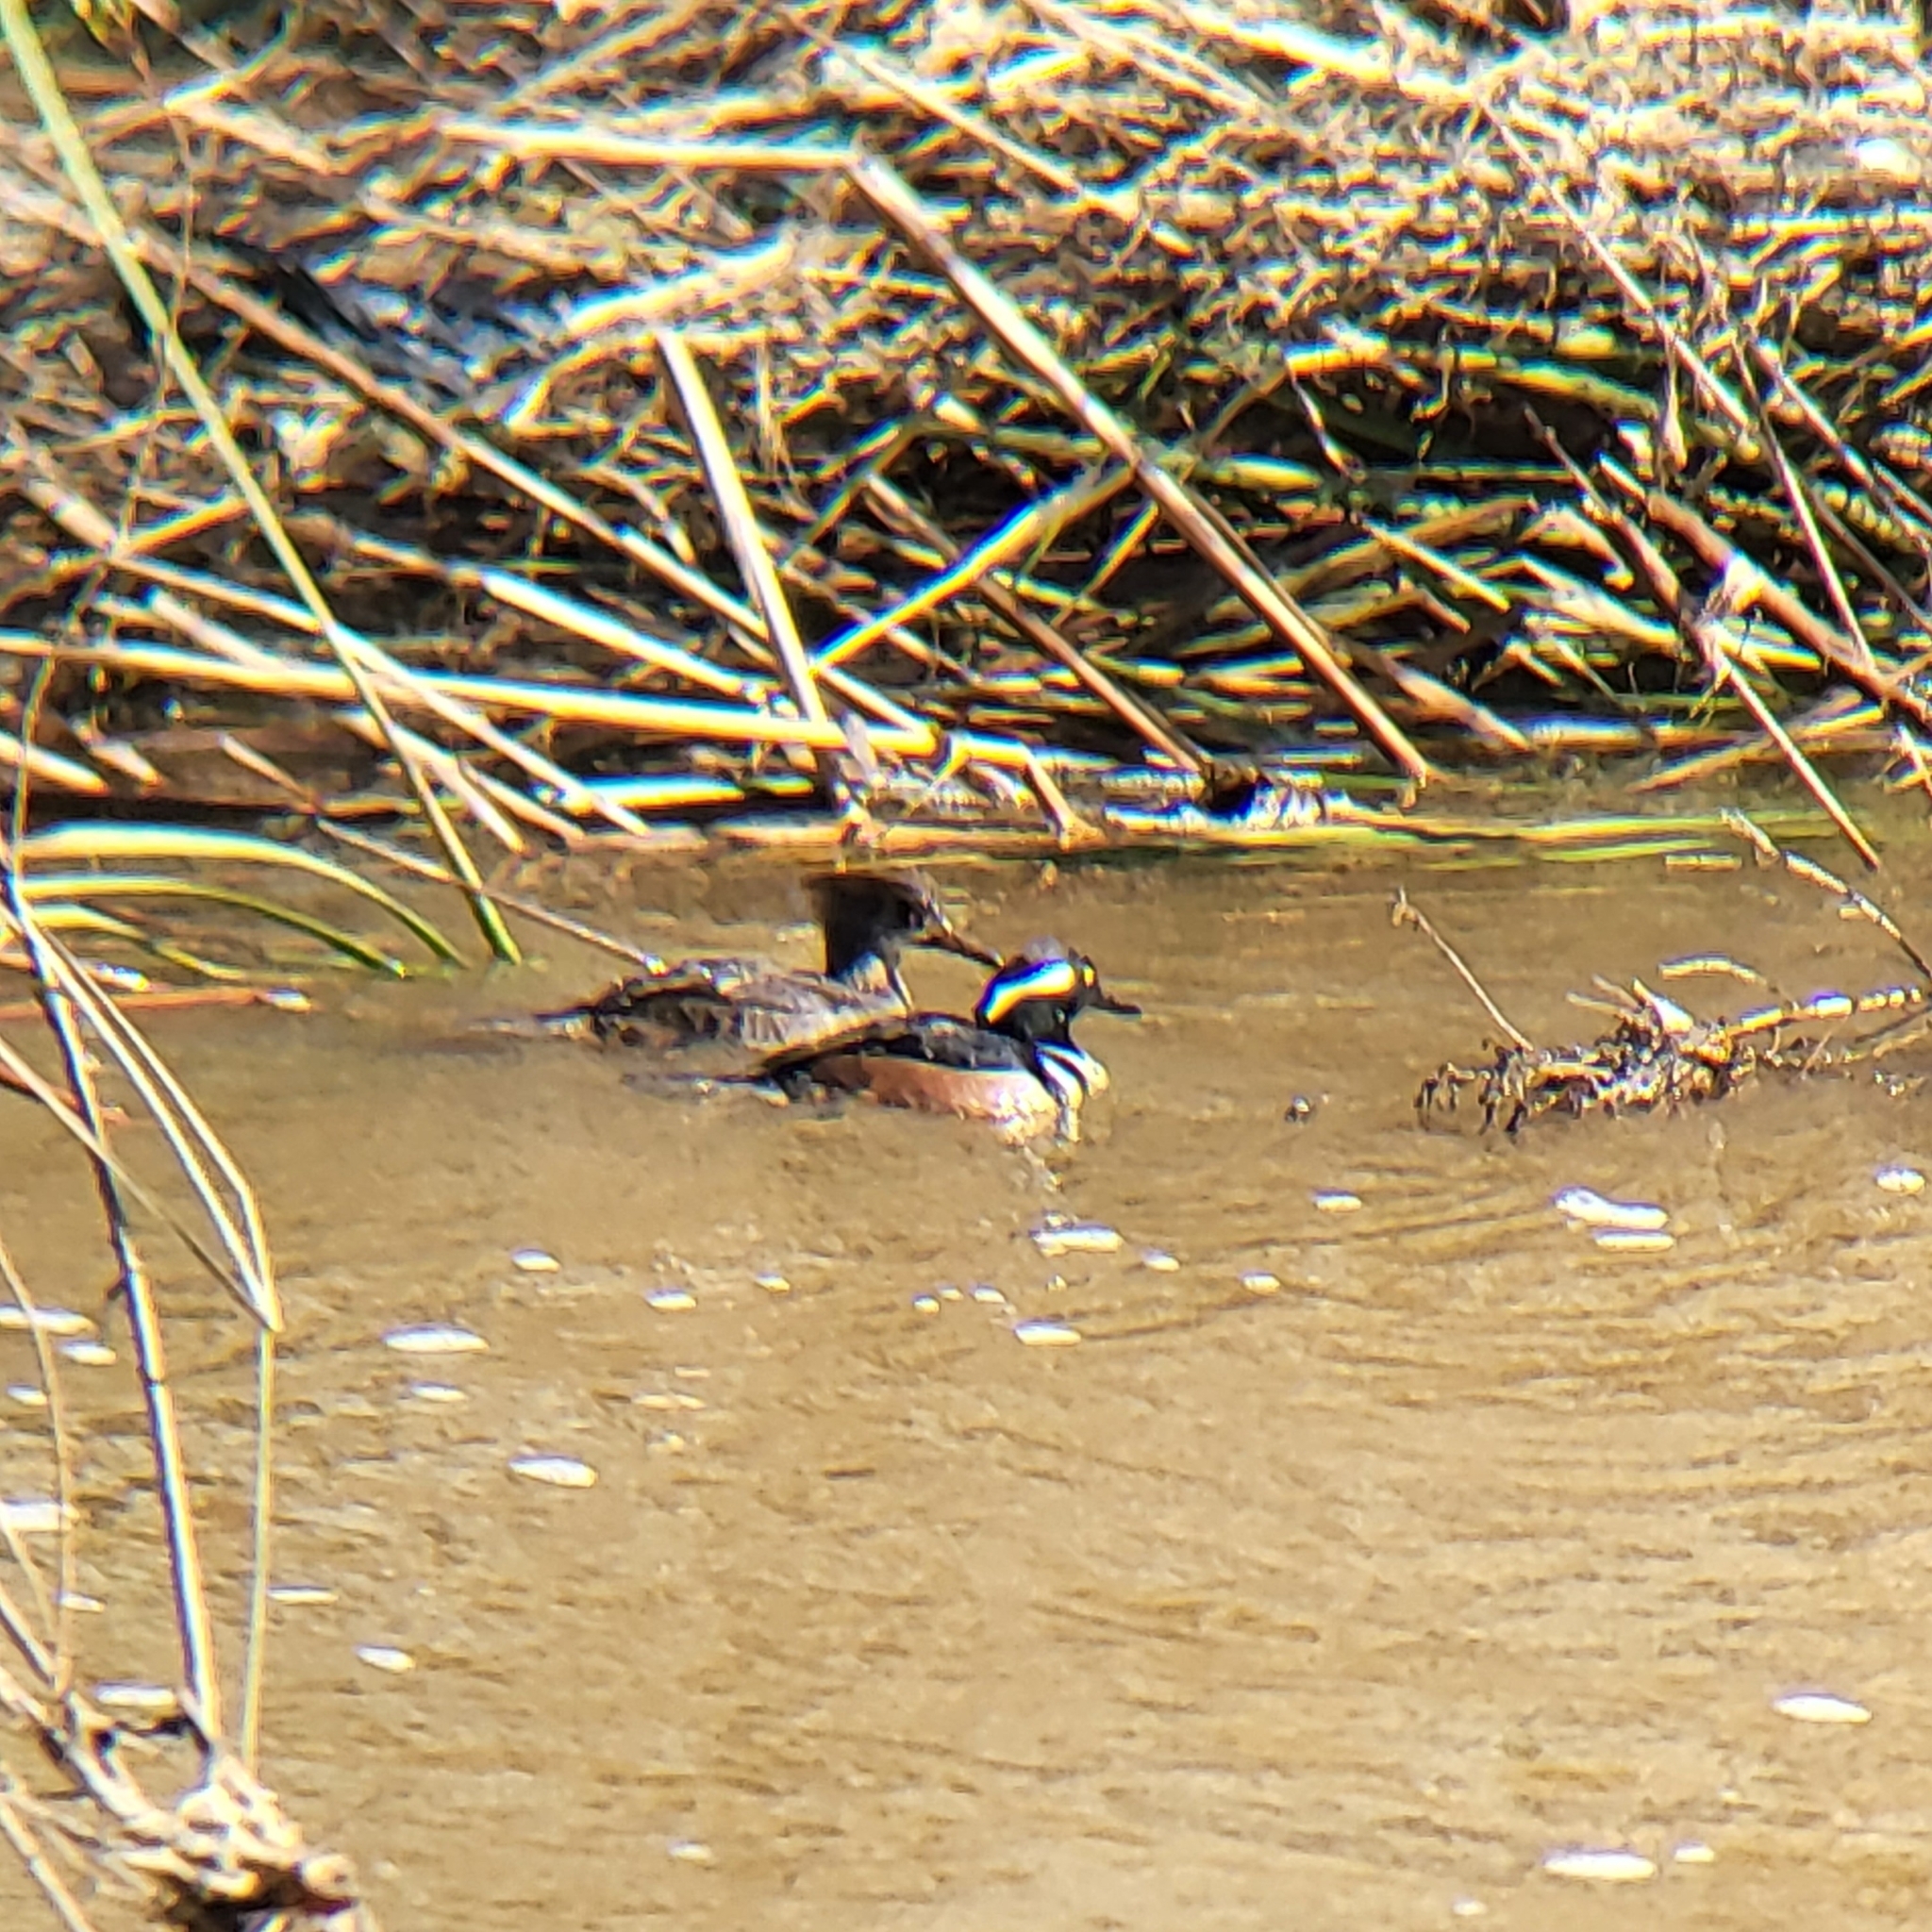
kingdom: Animalia
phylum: Chordata
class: Aves
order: Anseriformes
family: Anatidae
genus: Lophodytes
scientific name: Lophodytes cucullatus
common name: Hooded merganser
